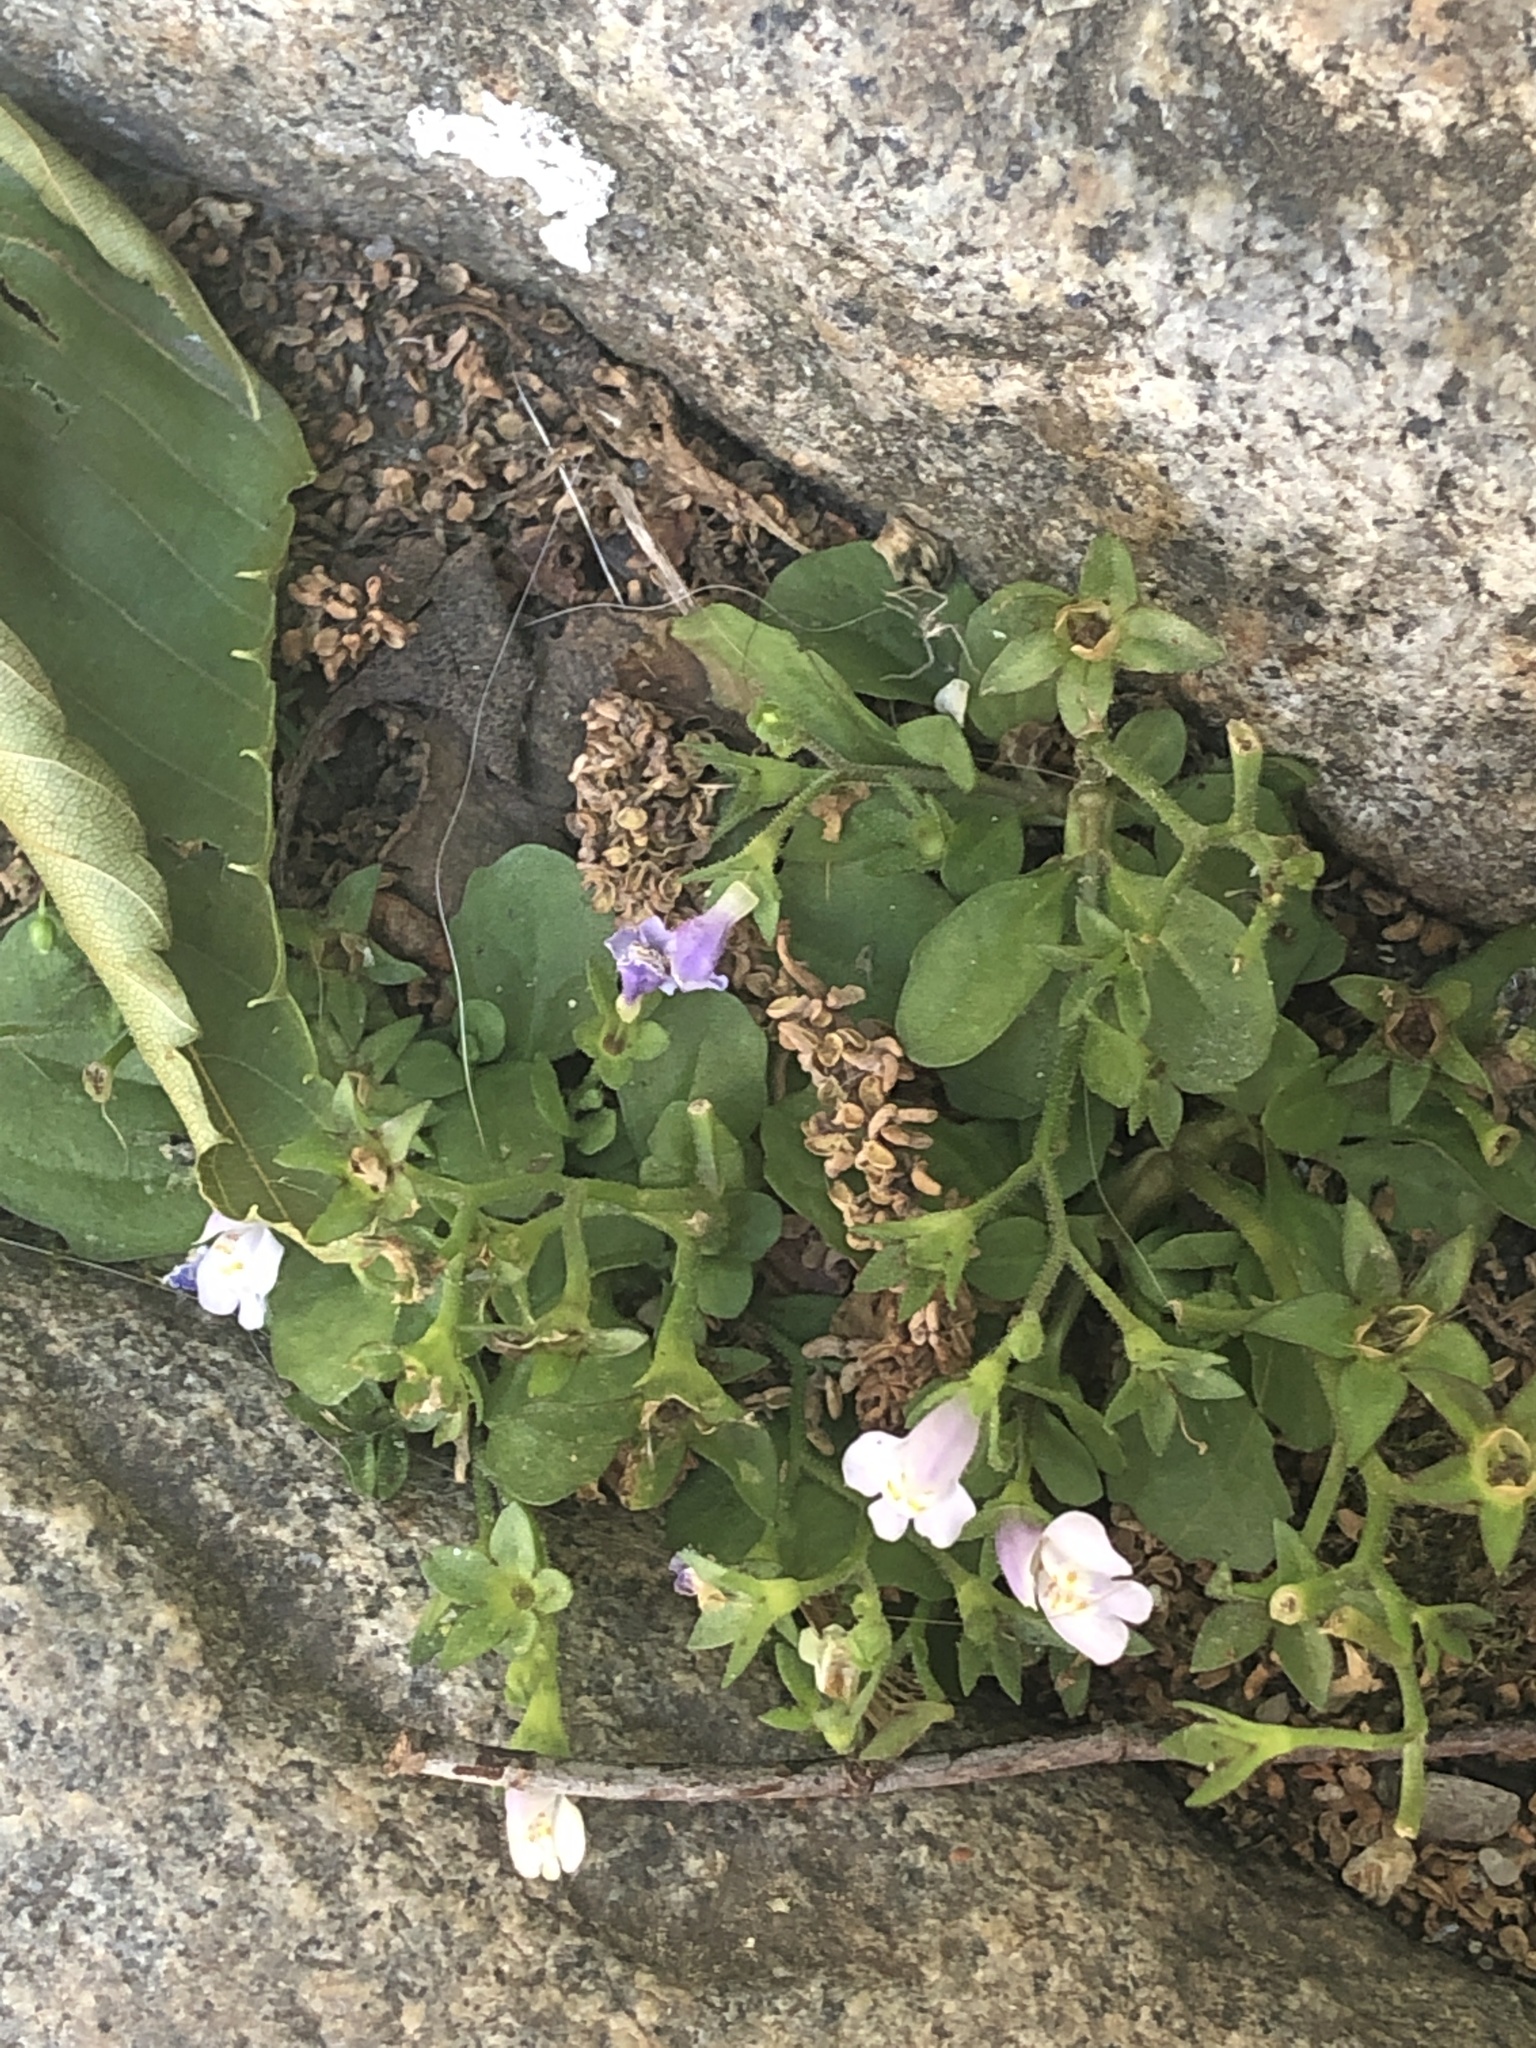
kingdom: Plantae
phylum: Tracheophyta
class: Magnoliopsida
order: Lamiales
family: Mazaceae
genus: Mazus
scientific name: Mazus pumilus
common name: Japanese mazus
